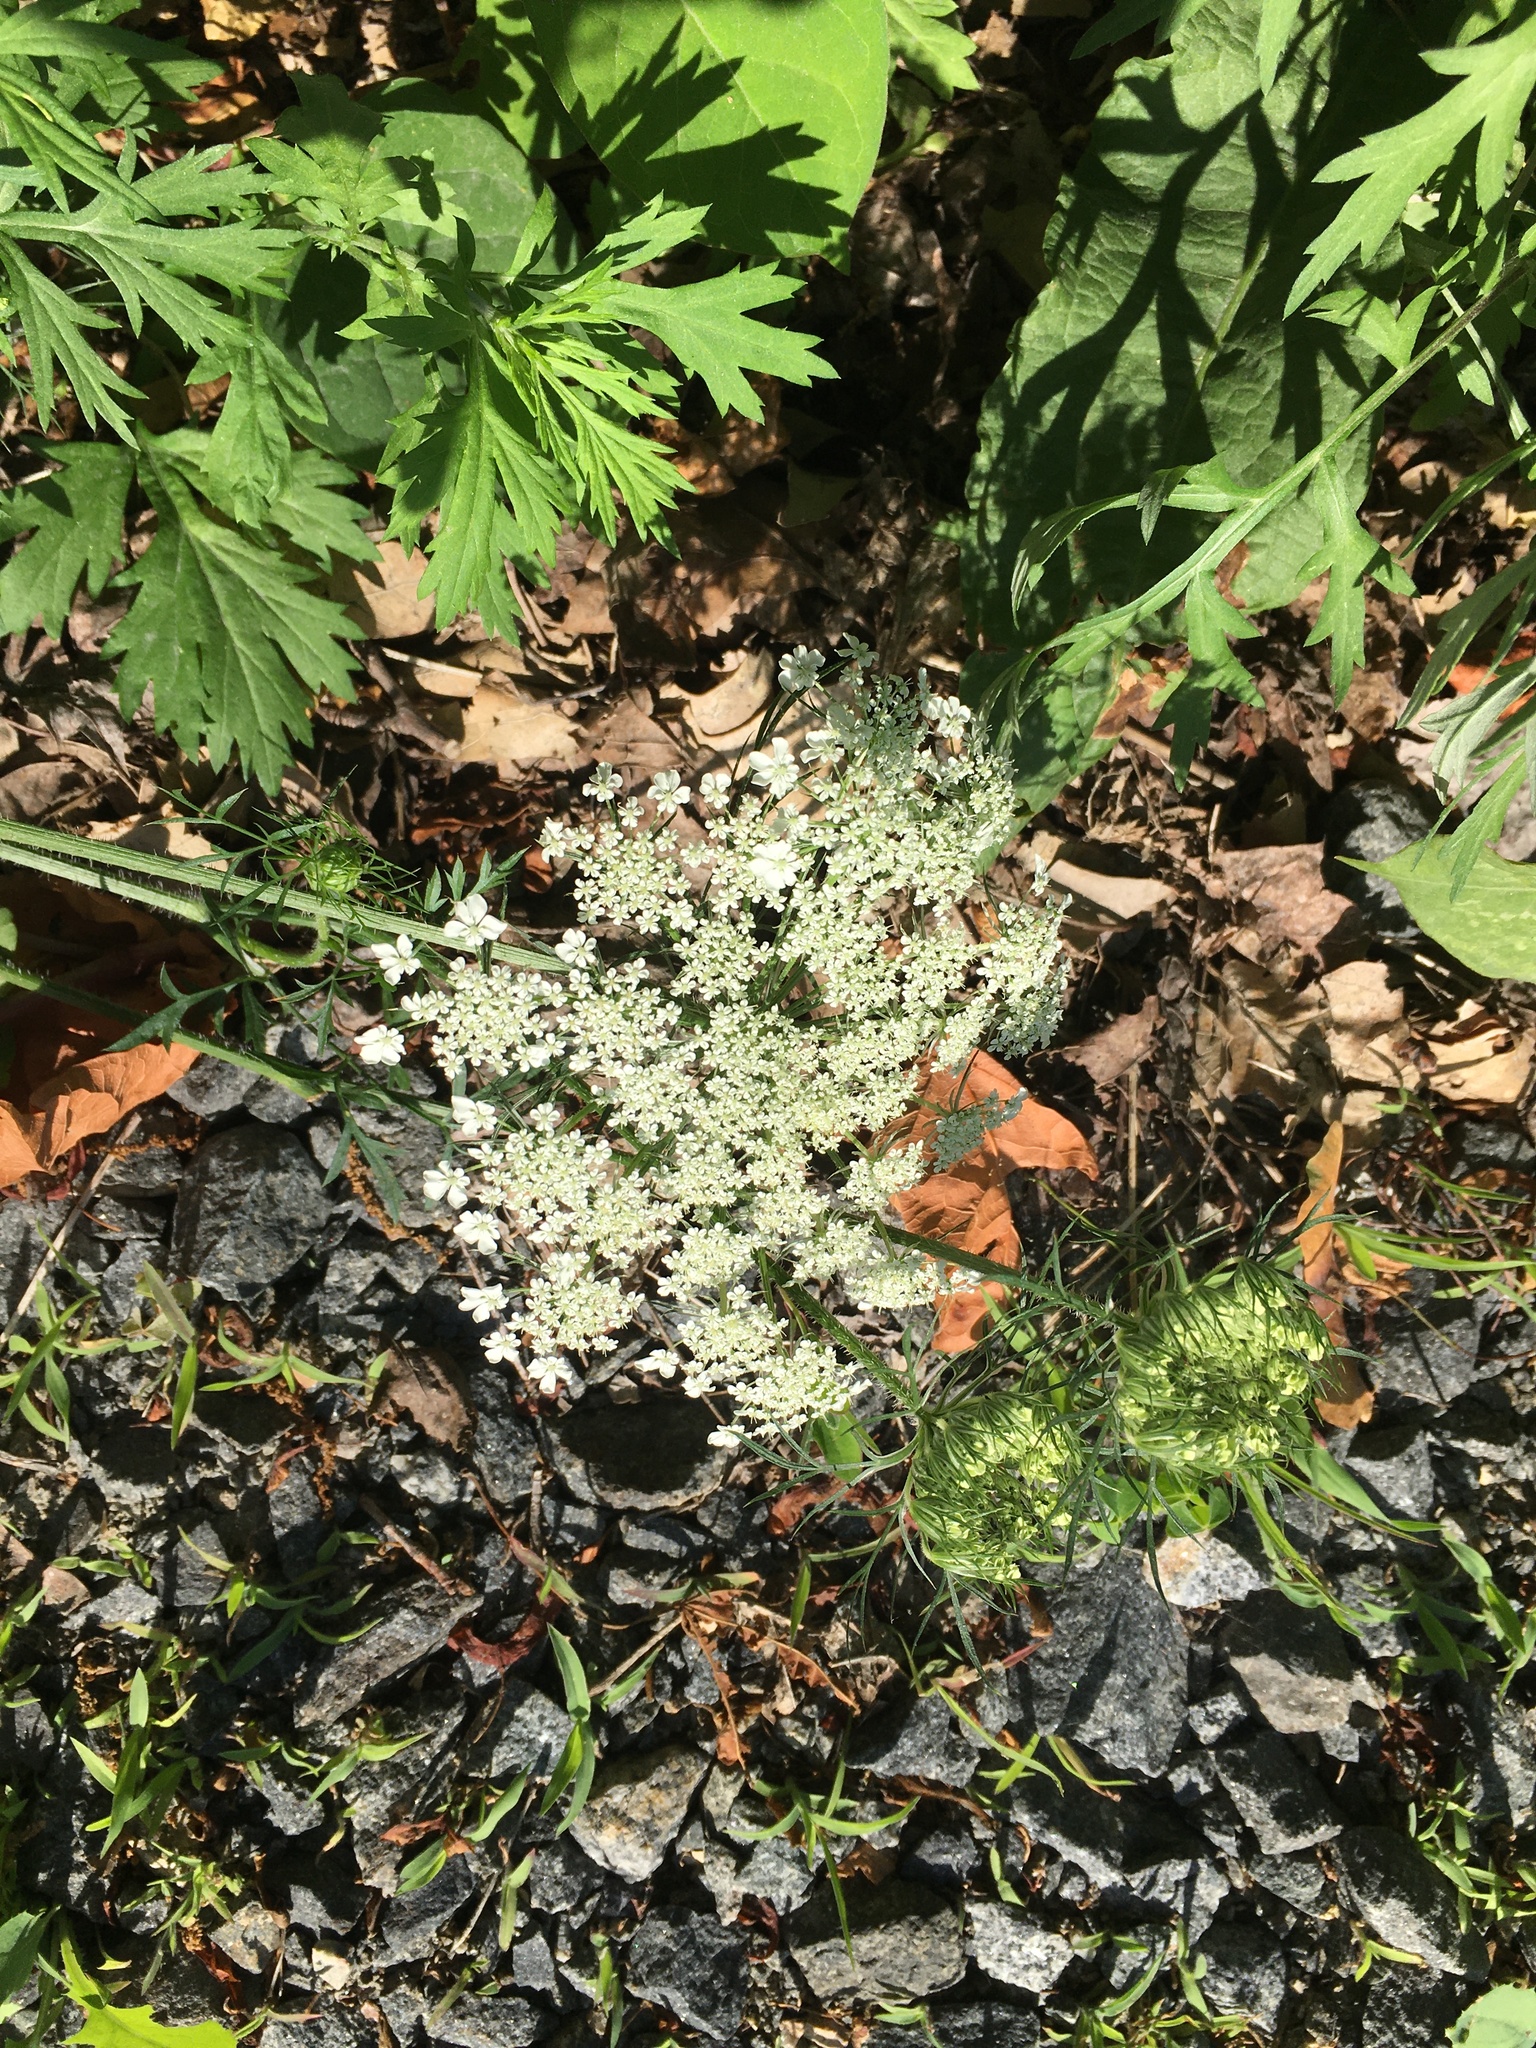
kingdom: Plantae
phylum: Tracheophyta
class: Magnoliopsida
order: Apiales
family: Apiaceae
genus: Daucus
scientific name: Daucus carota
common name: Wild carrot
